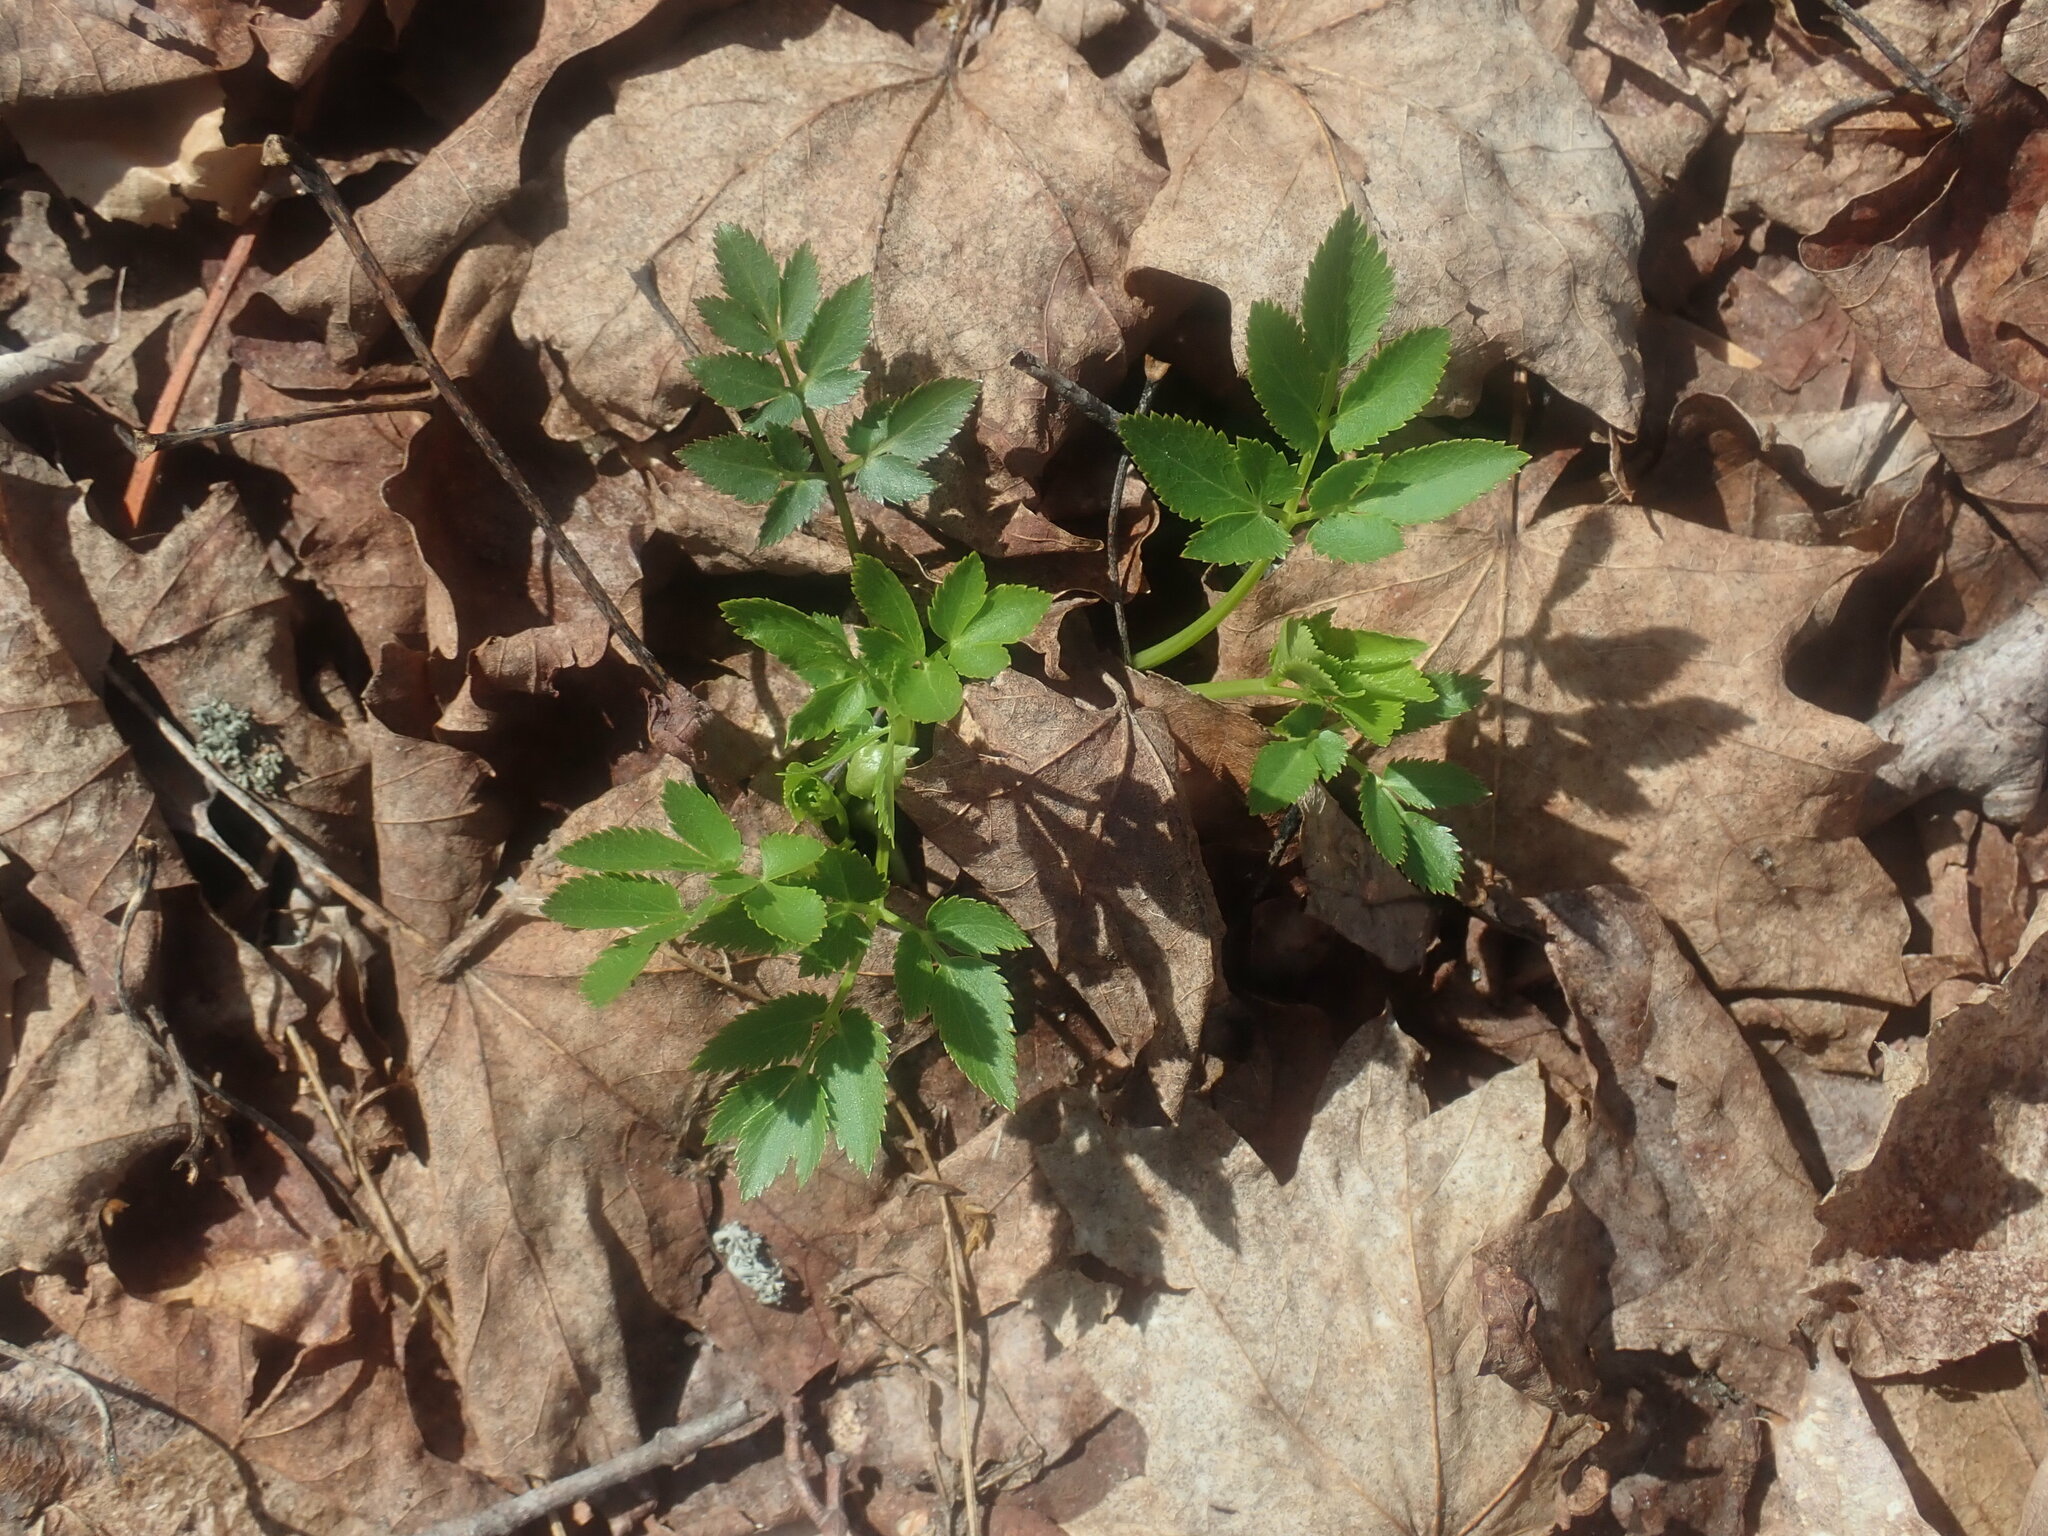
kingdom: Plantae
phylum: Tracheophyta
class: Magnoliopsida
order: Apiales
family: Apiaceae
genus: Zizia
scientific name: Zizia aurea
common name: Golden alexanders
